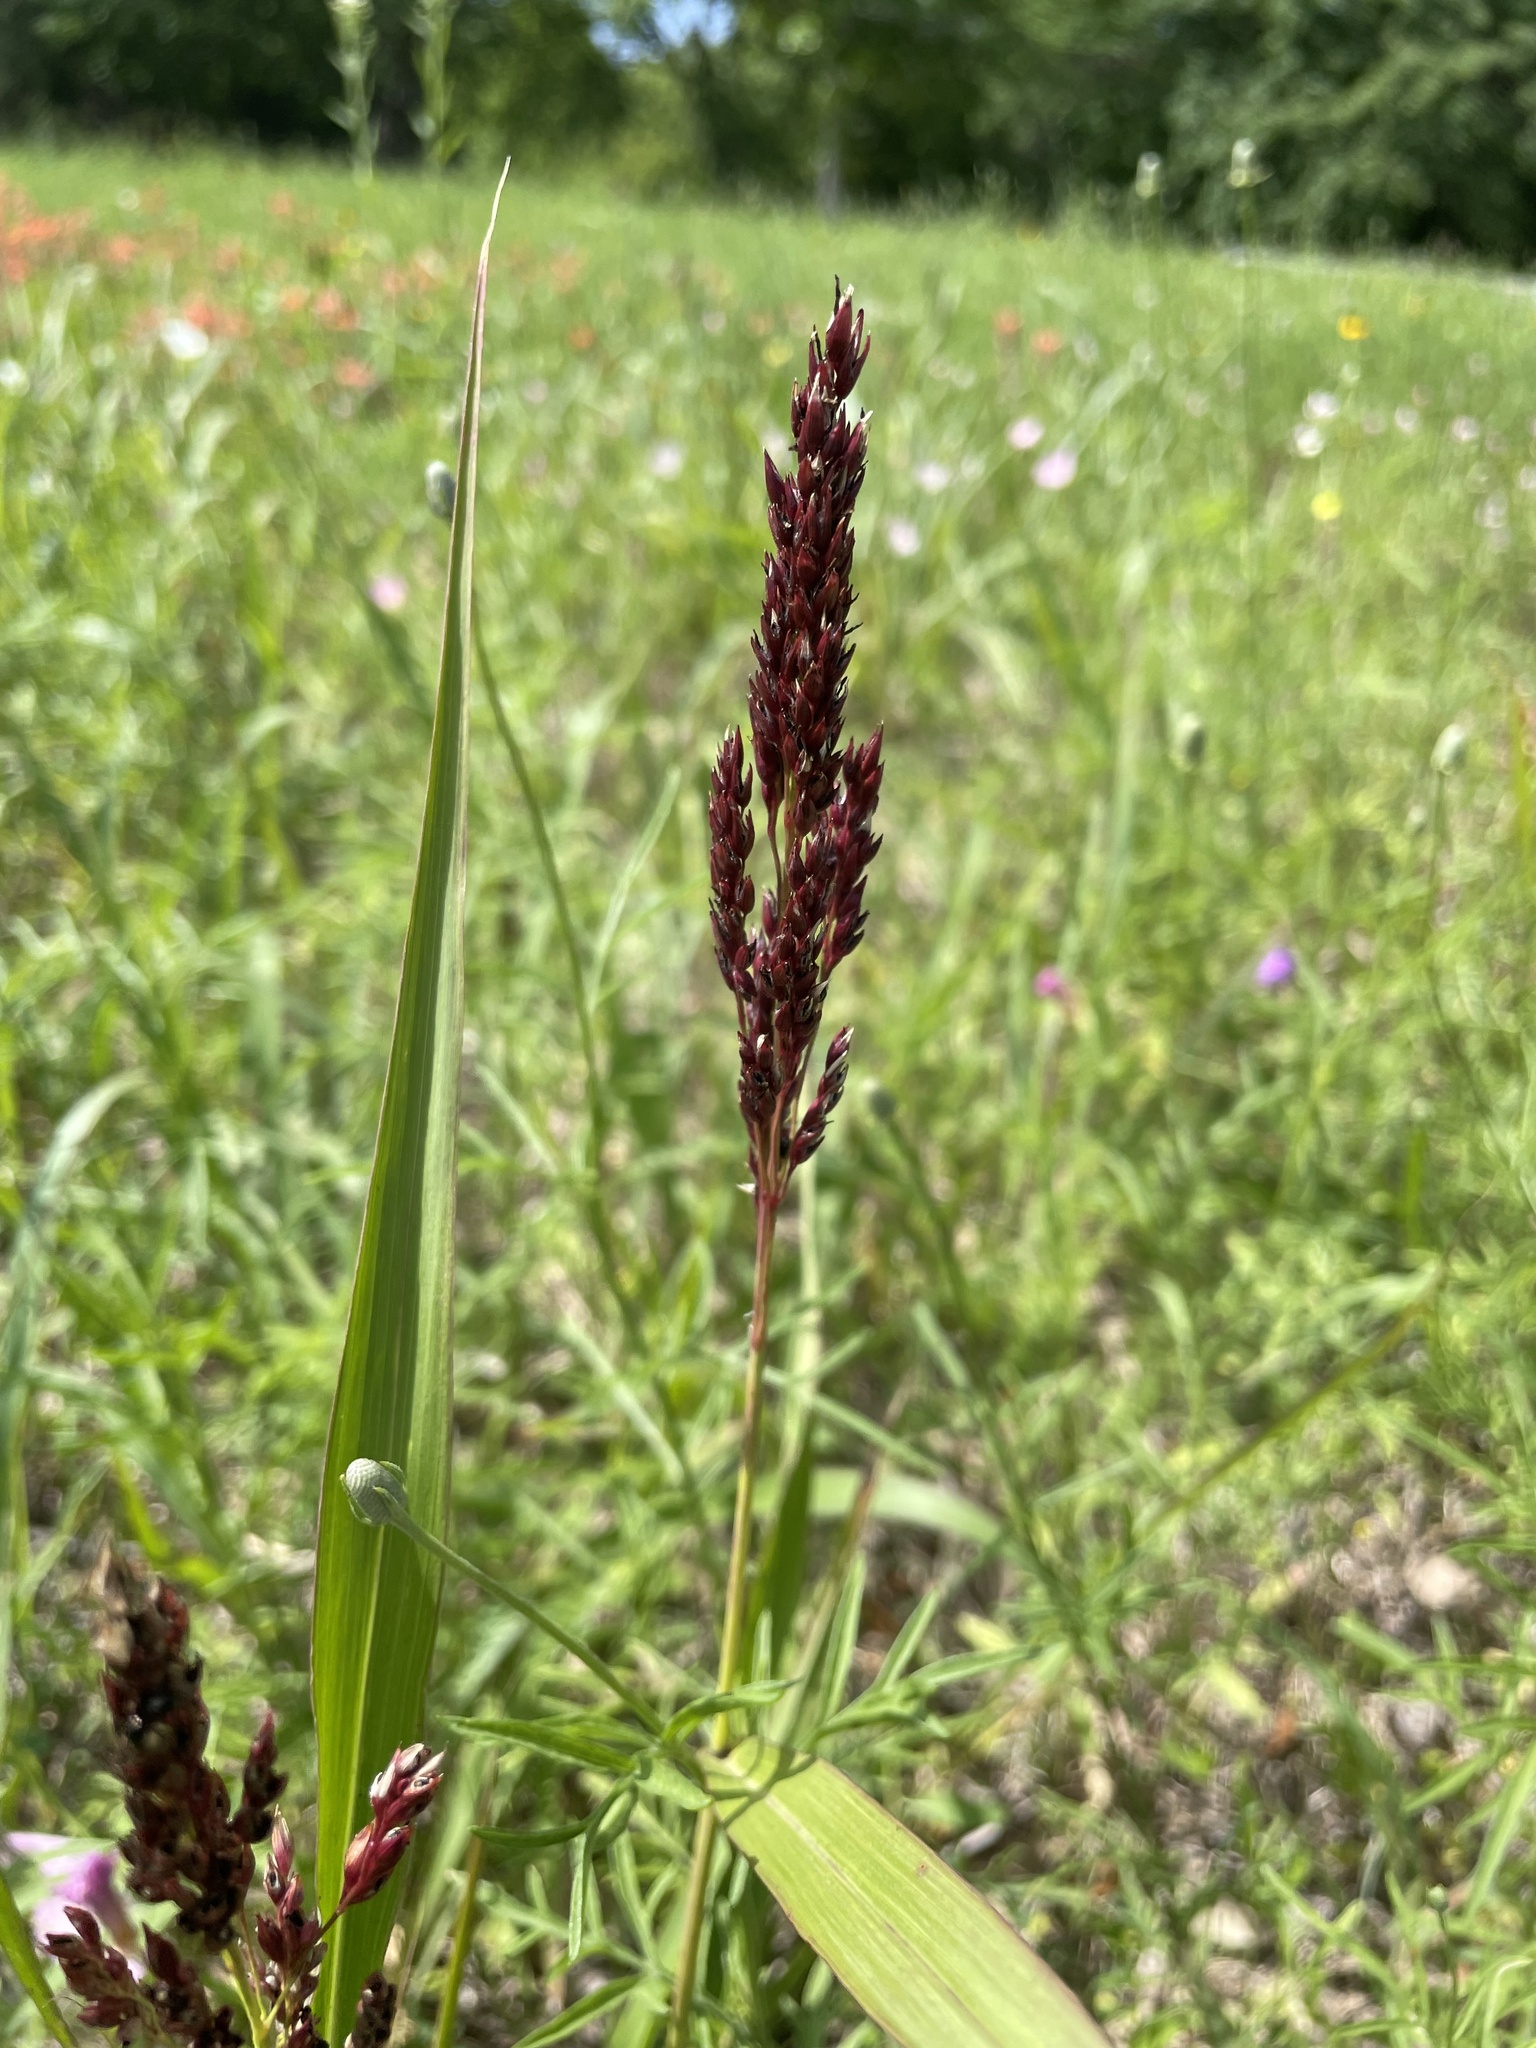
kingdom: Plantae
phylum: Tracheophyta
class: Liliopsida
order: Poales
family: Poaceae
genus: Sorghum
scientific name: Sorghum halepense
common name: Johnson-grass
